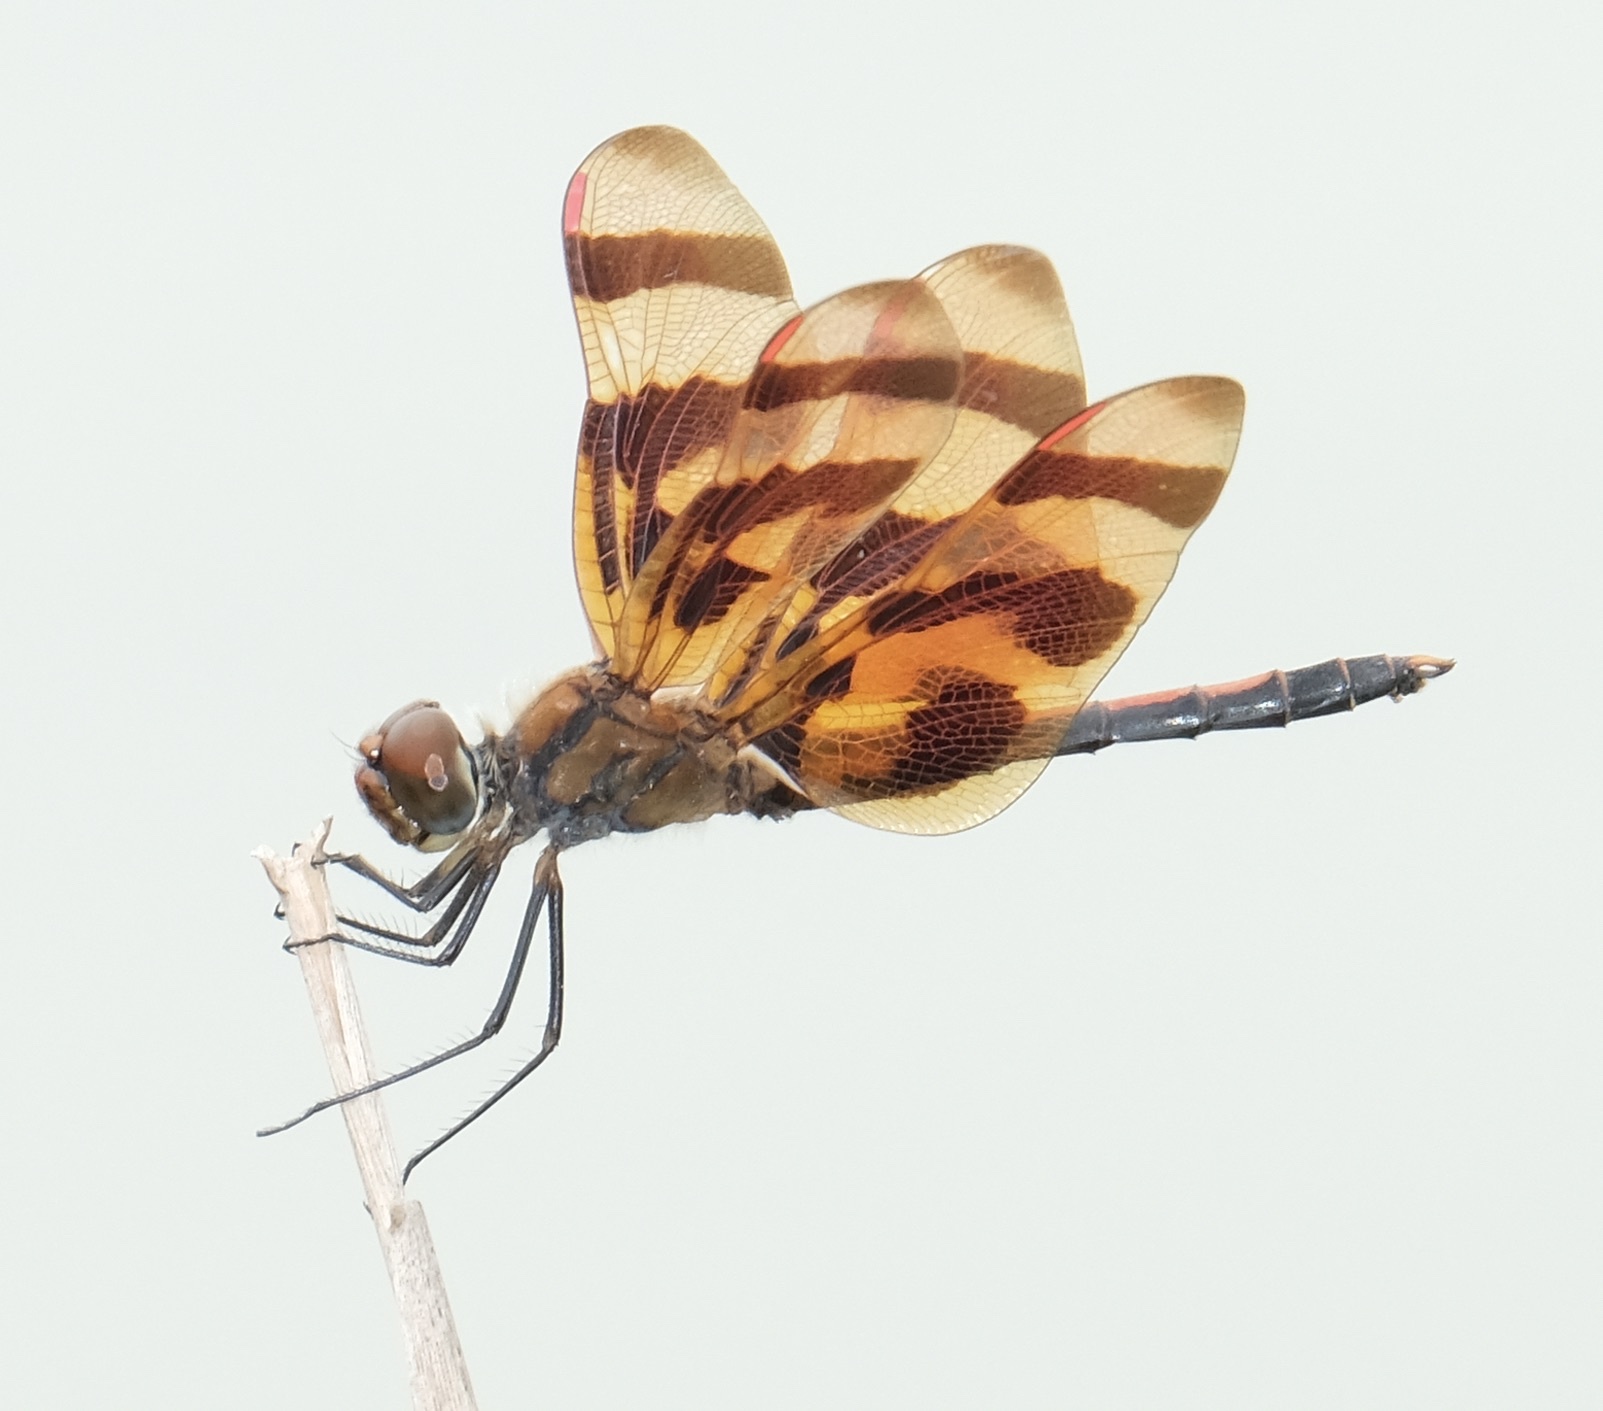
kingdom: Animalia
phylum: Arthropoda
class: Insecta
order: Odonata
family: Libellulidae
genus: Celithemis
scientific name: Celithemis eponina
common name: Halloween pennant
